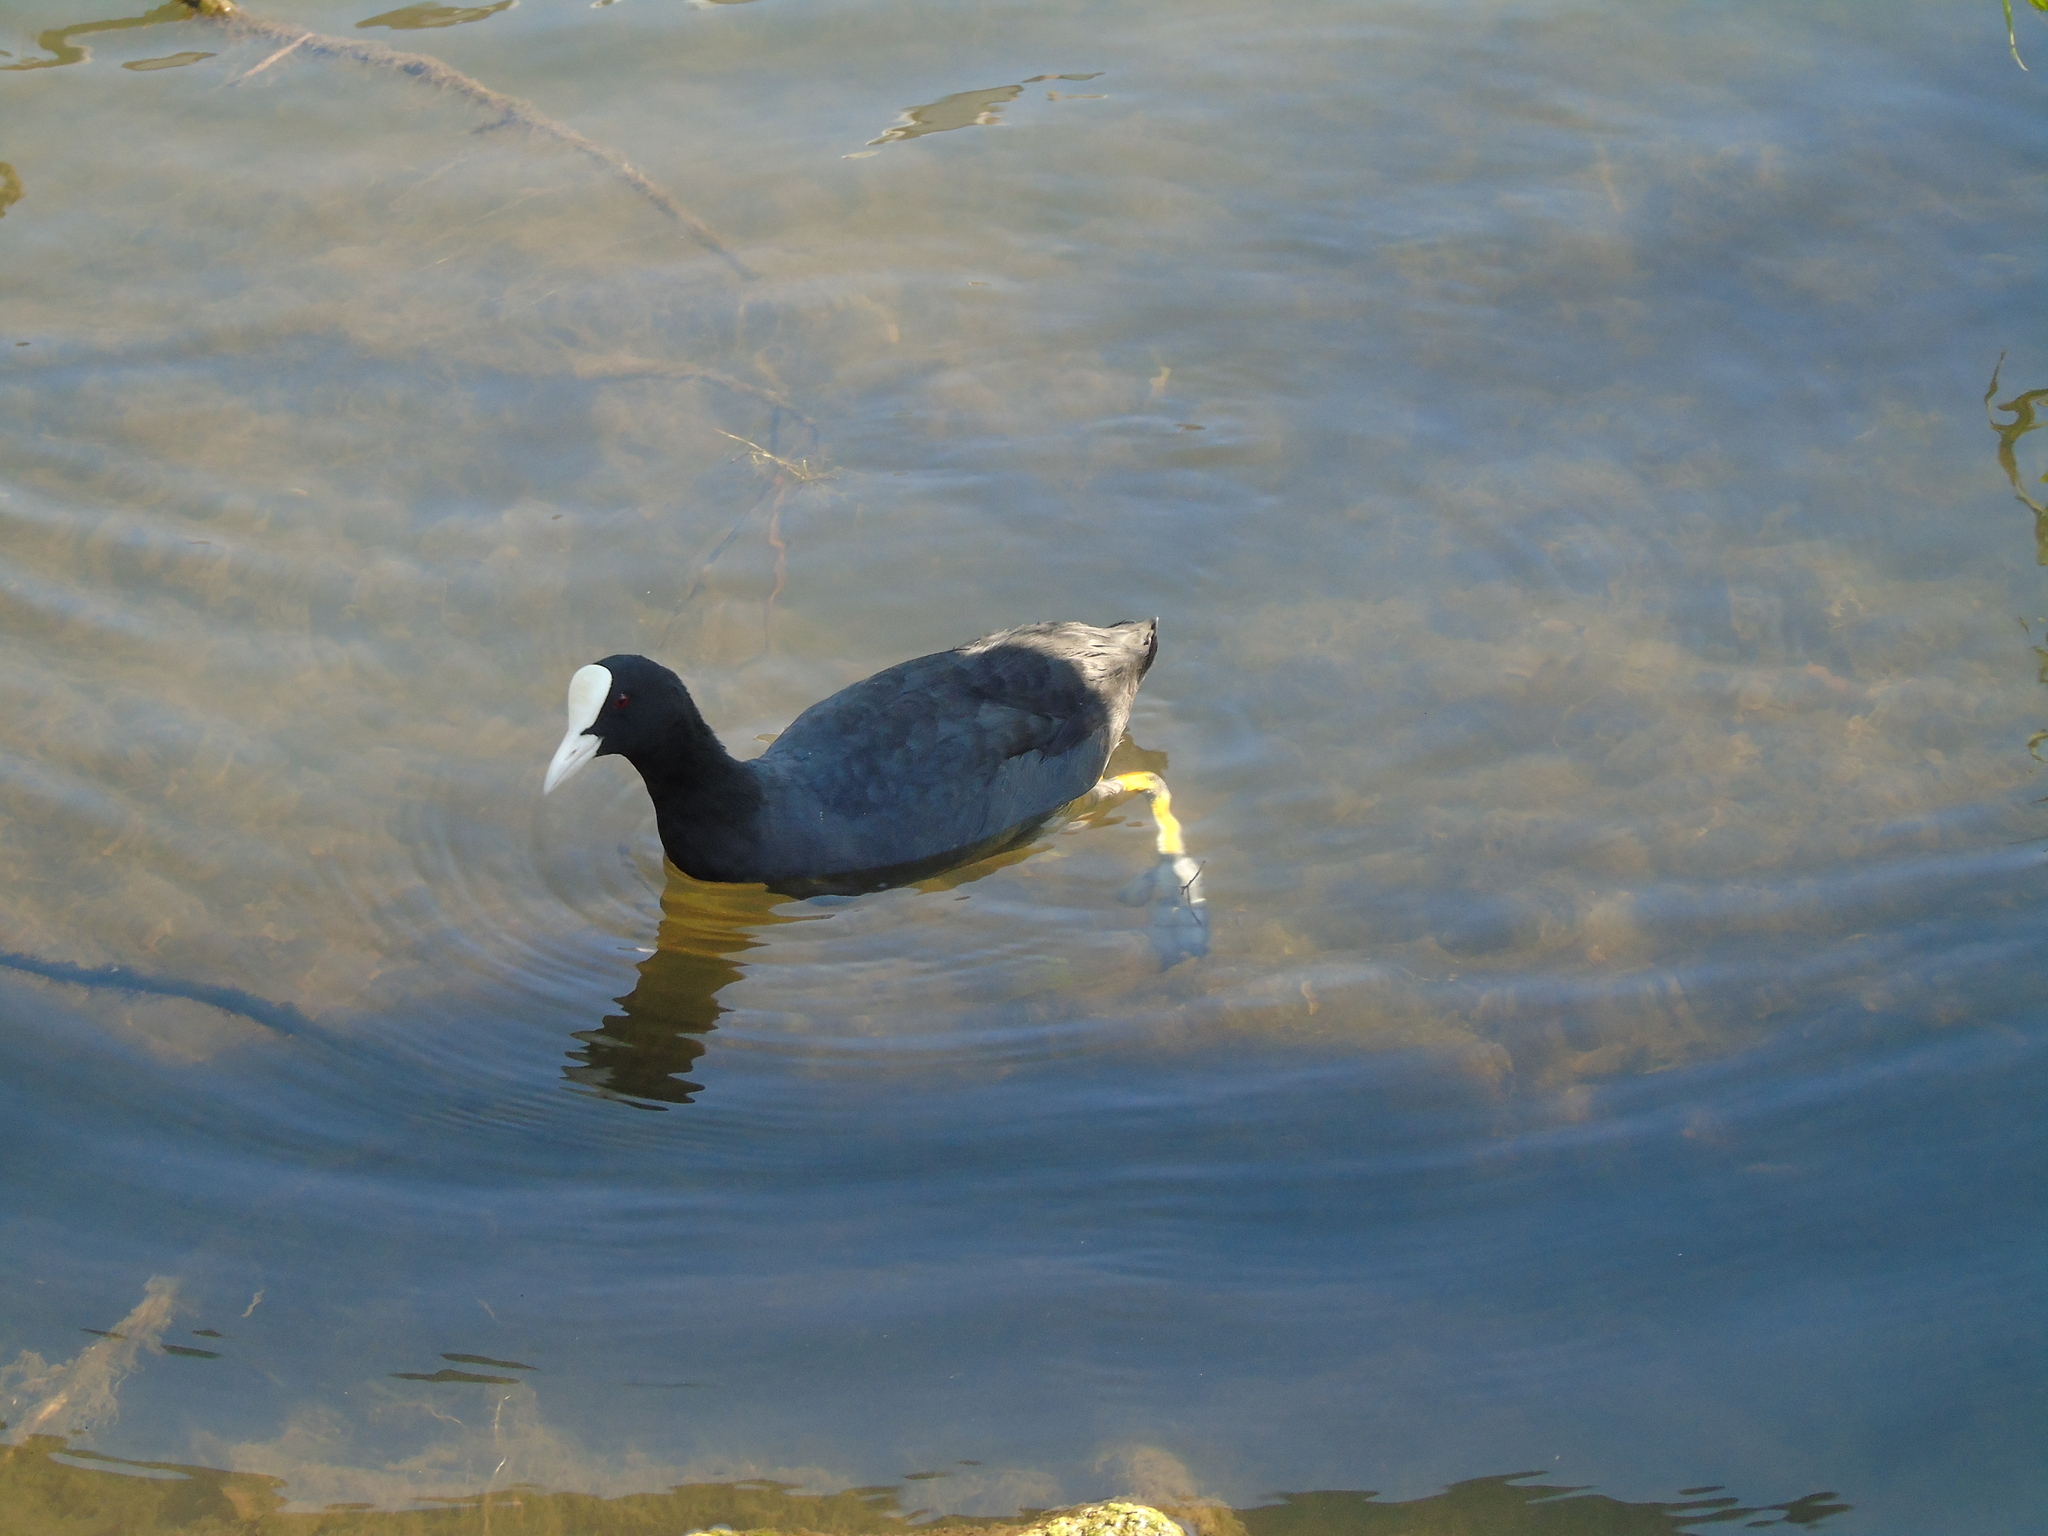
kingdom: Animalia
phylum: Chordata
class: Aves
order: Gruiformes
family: Rallidae
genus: Fulica
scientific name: Fulica atra
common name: Eurasian coot
